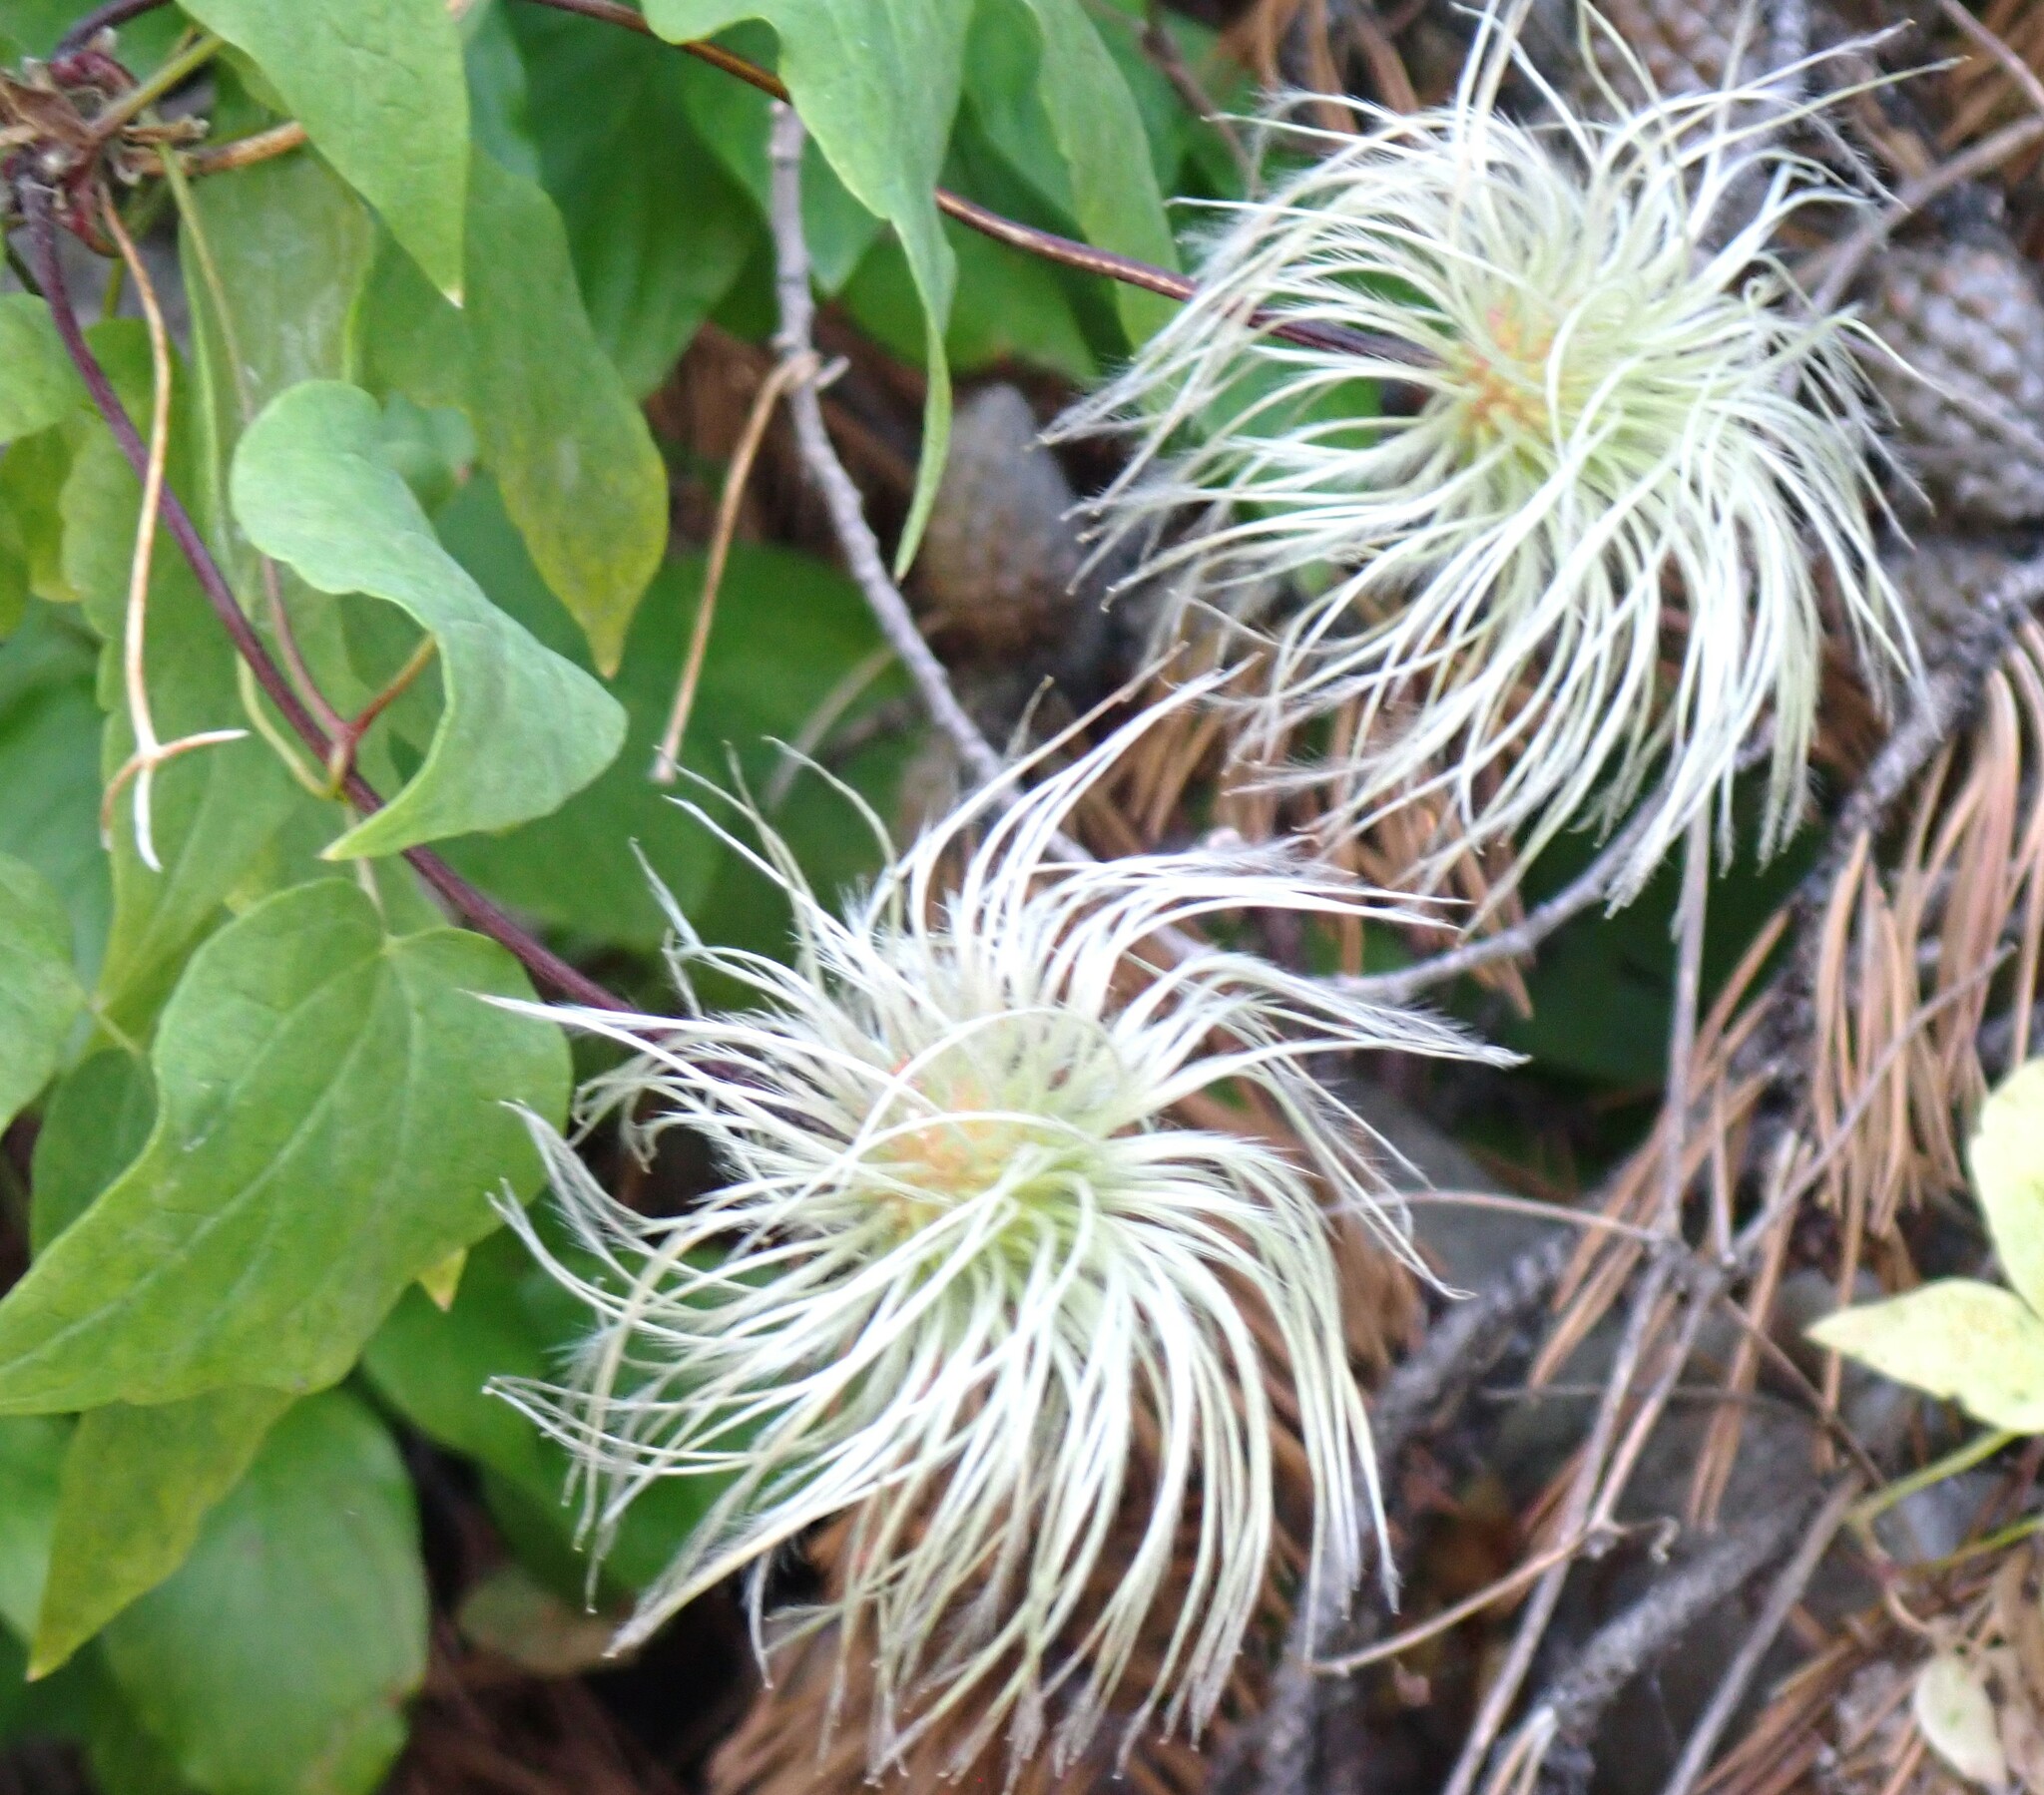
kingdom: Plantae
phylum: Tracheophyta
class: Magnoliopsida
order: Ranunculales
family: Ranunculaceae
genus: Clematis
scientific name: Clematis occidentalis
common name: Purple clematis
